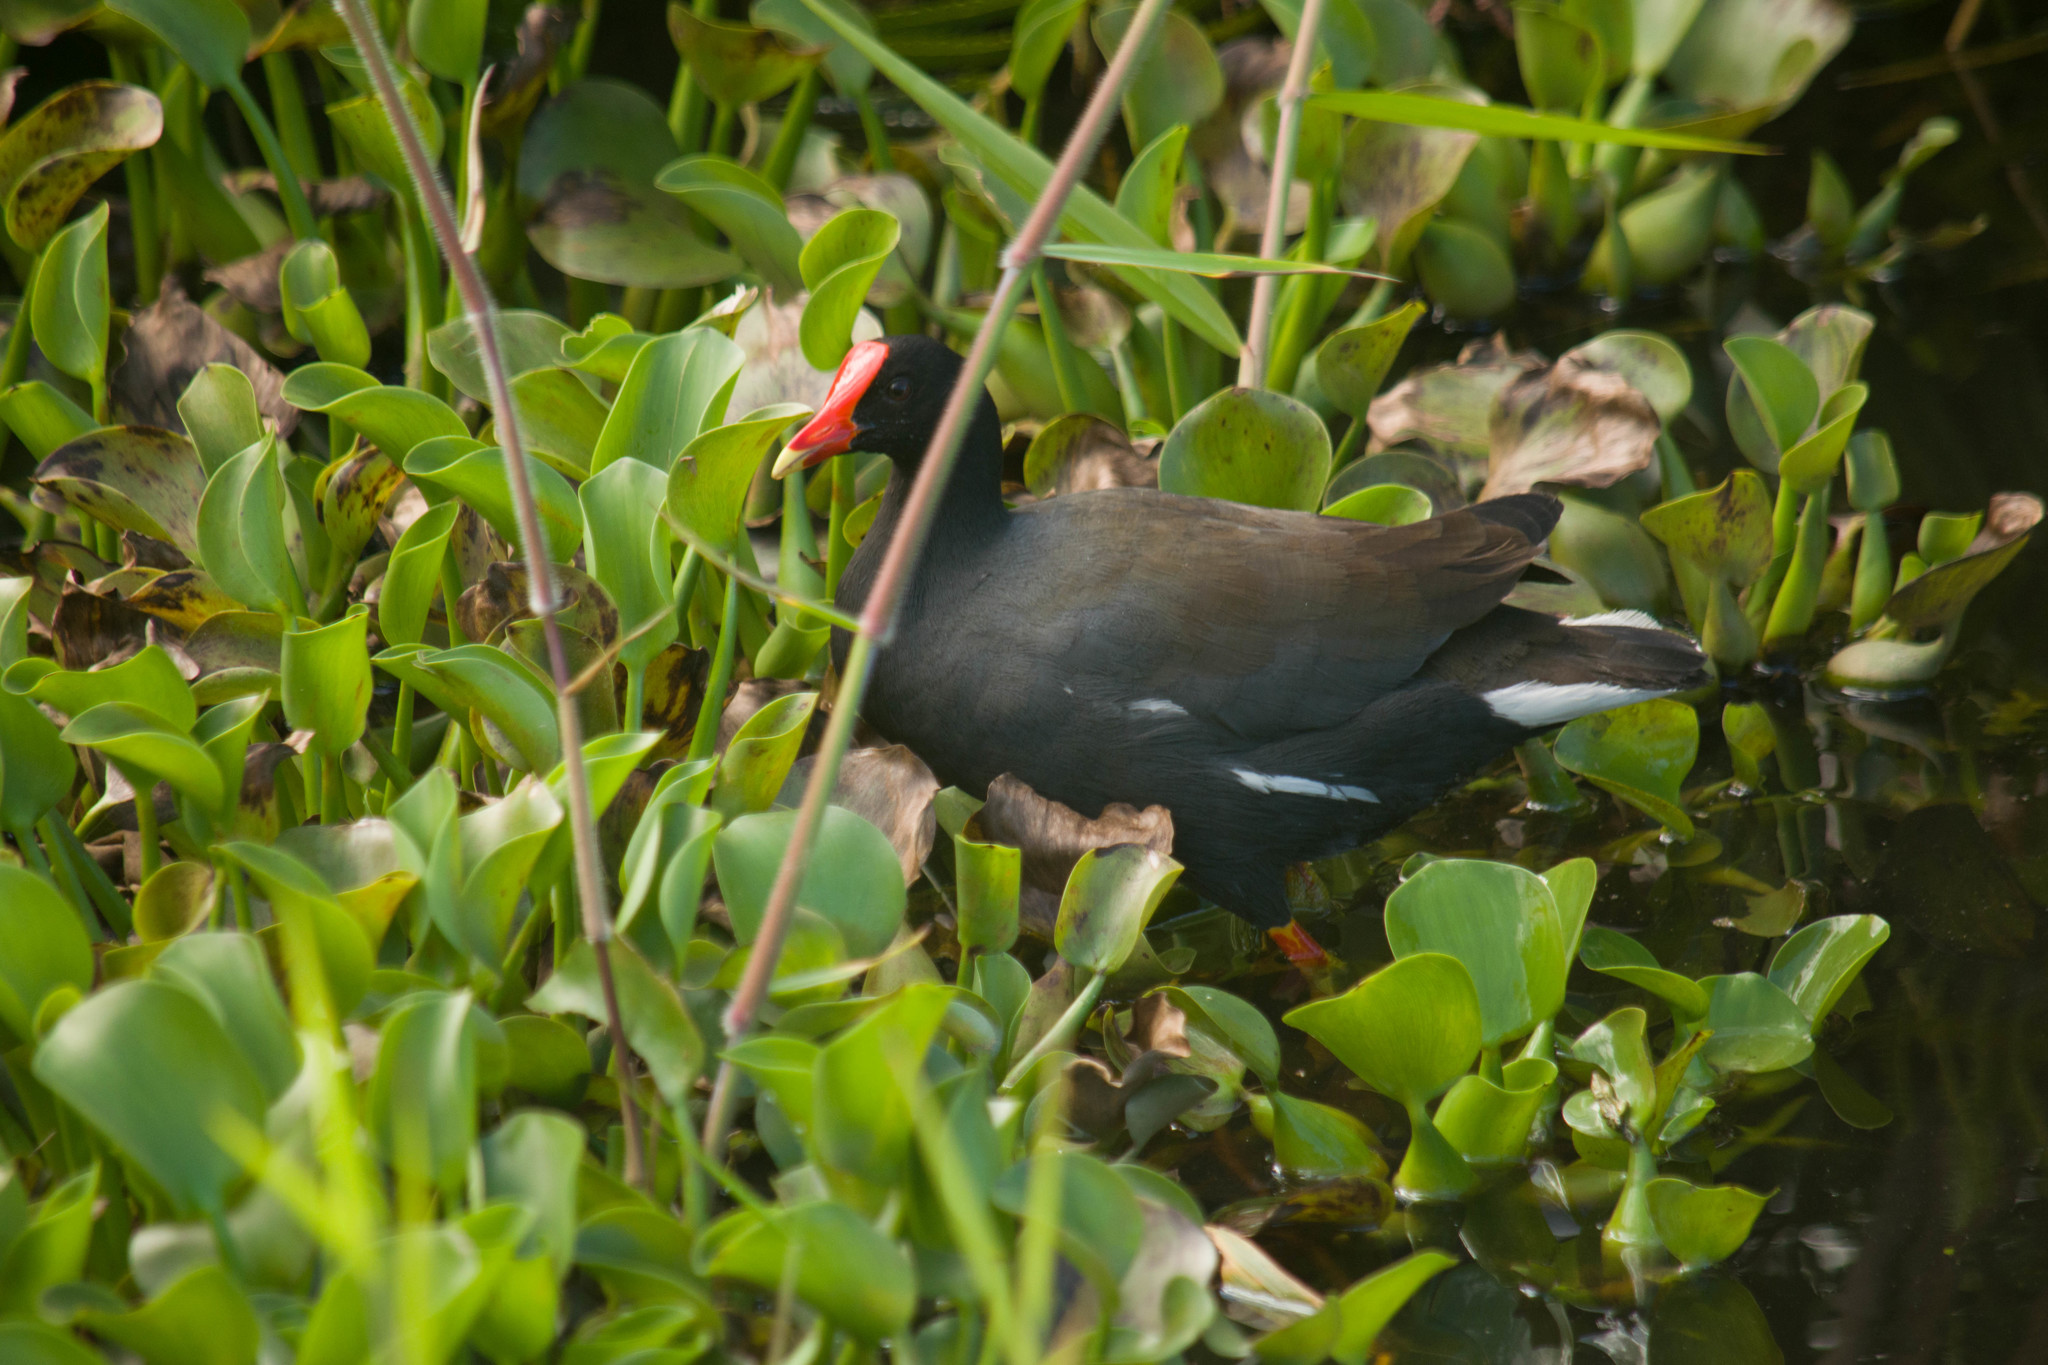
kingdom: Animalia
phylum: Chordata
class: Aves
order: Gruiformes
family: Rallidae
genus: Gallinula
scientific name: Gallinula chloropus
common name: Common moorhen
